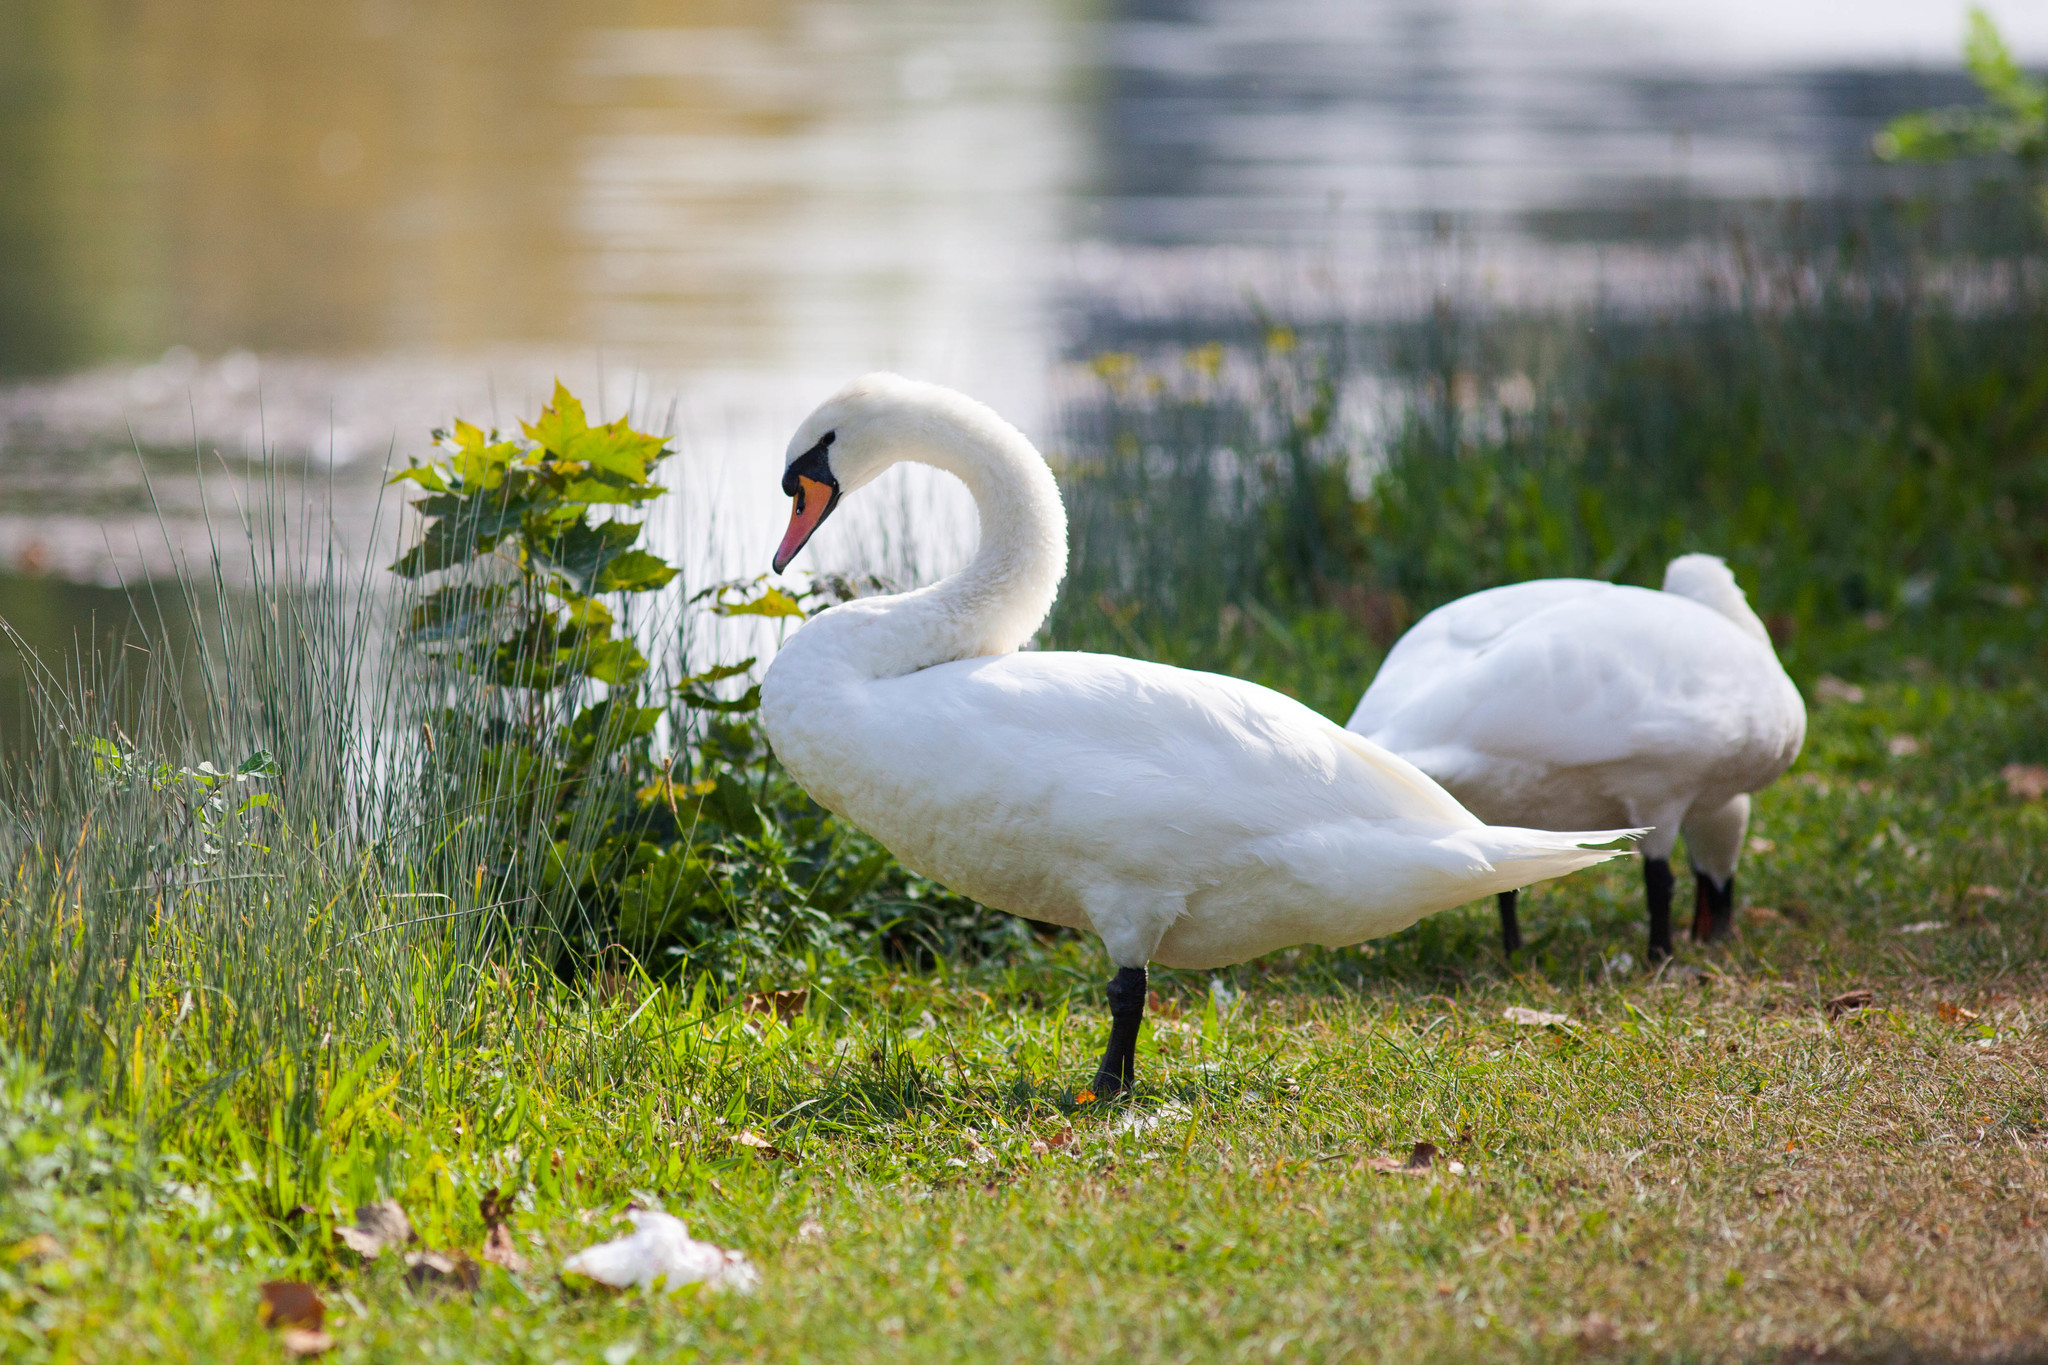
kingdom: Animalia
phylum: Chordata
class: Aves
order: Anseriformes
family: Anatidae
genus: Cygnus
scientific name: Cygnus olor
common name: Mute swan
